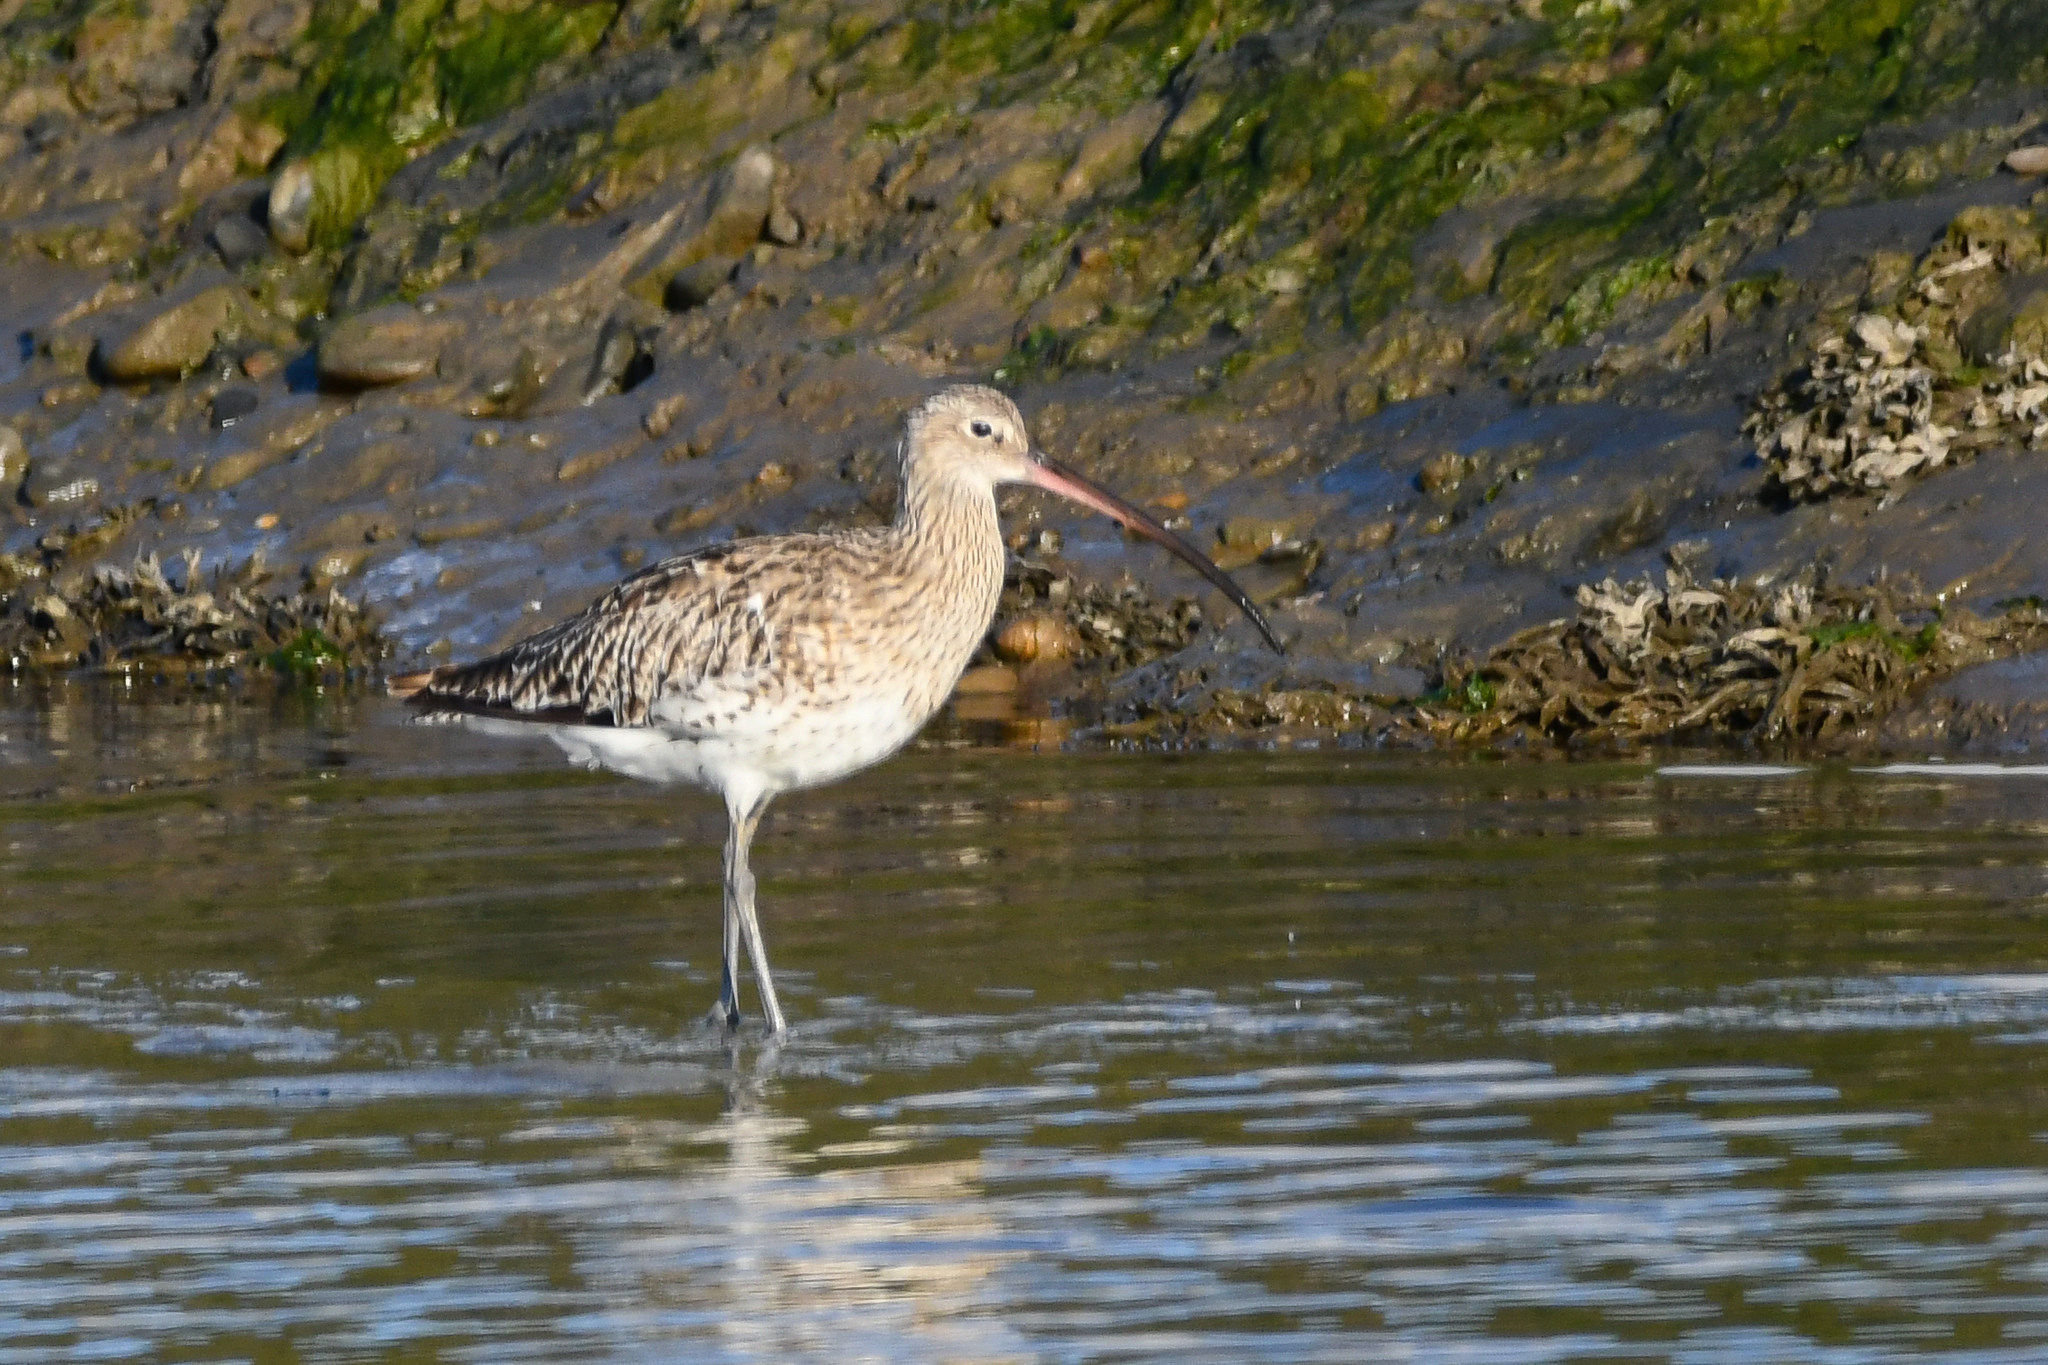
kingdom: Animalia
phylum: Chordata
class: Aves
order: Charadriiformes
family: Scolopacidae
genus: Numenius
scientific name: Numenius arquata
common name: Eurasian curlew
